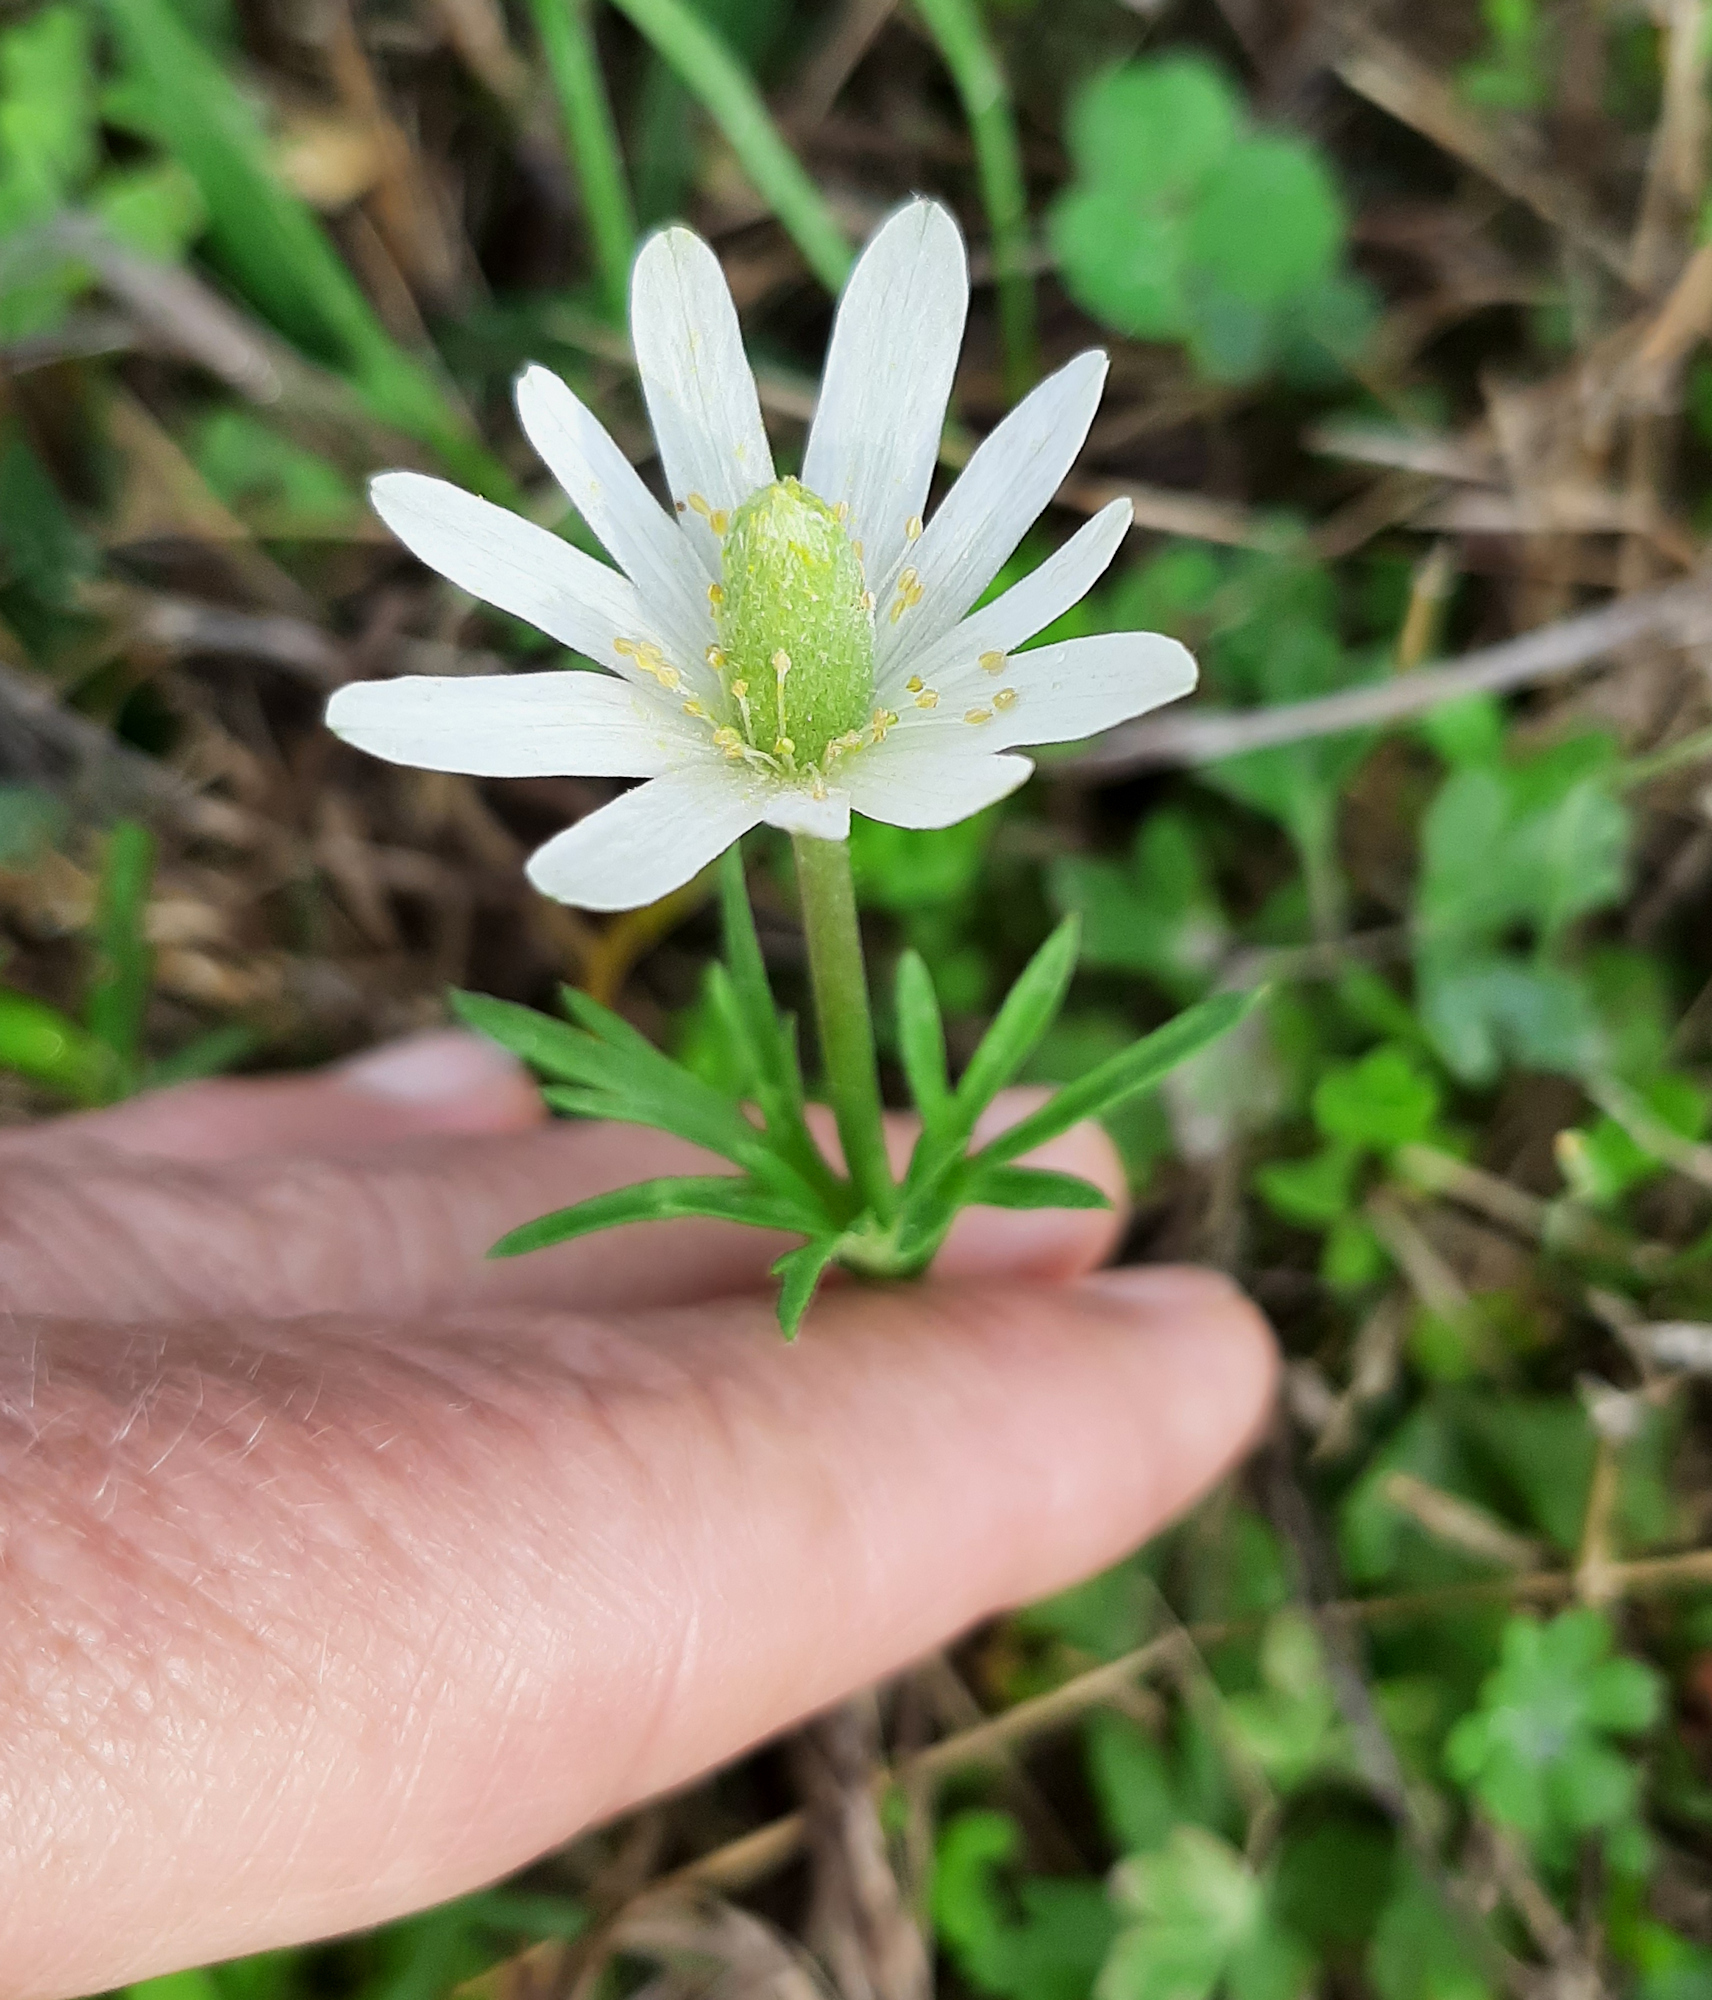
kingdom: Plantae
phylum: Tracheophyta
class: Magnoliopsida
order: Ranunculales
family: Ranunculaceae
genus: Anemone
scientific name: Anemone berlandieri
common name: Ten-petal anemone
